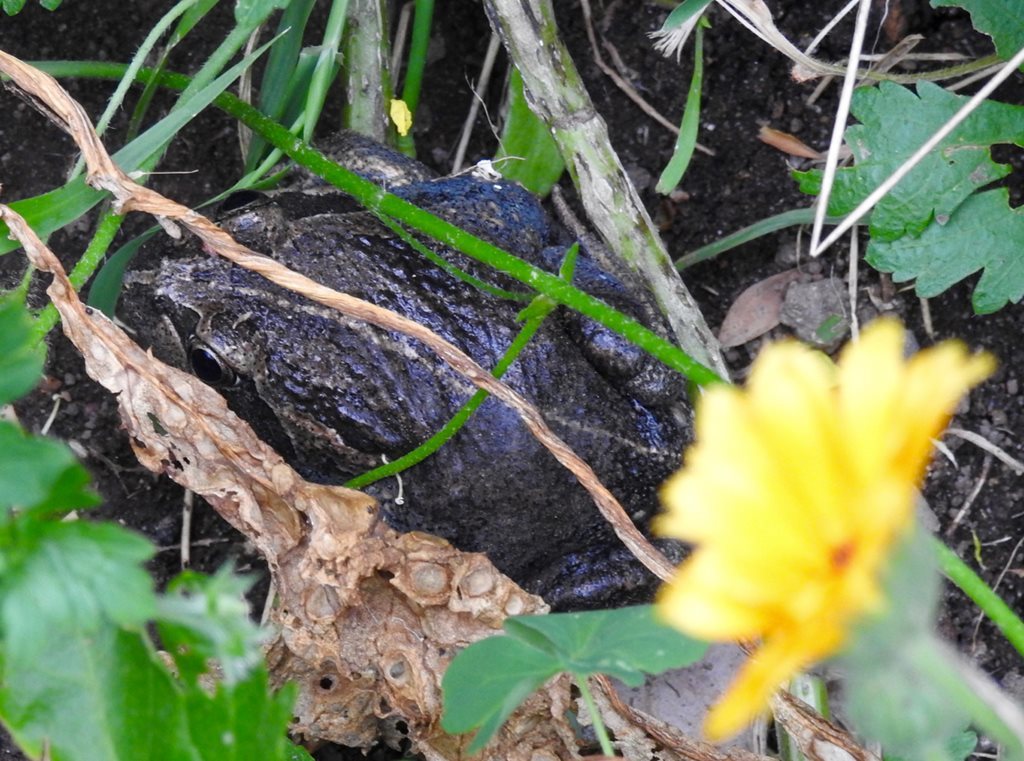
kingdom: Animalia
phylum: Chordata
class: Amphibia
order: Anura
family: Limnodynastidae
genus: Limnodynastes
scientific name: Limnodynastes dumerilii
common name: Banjo frog
